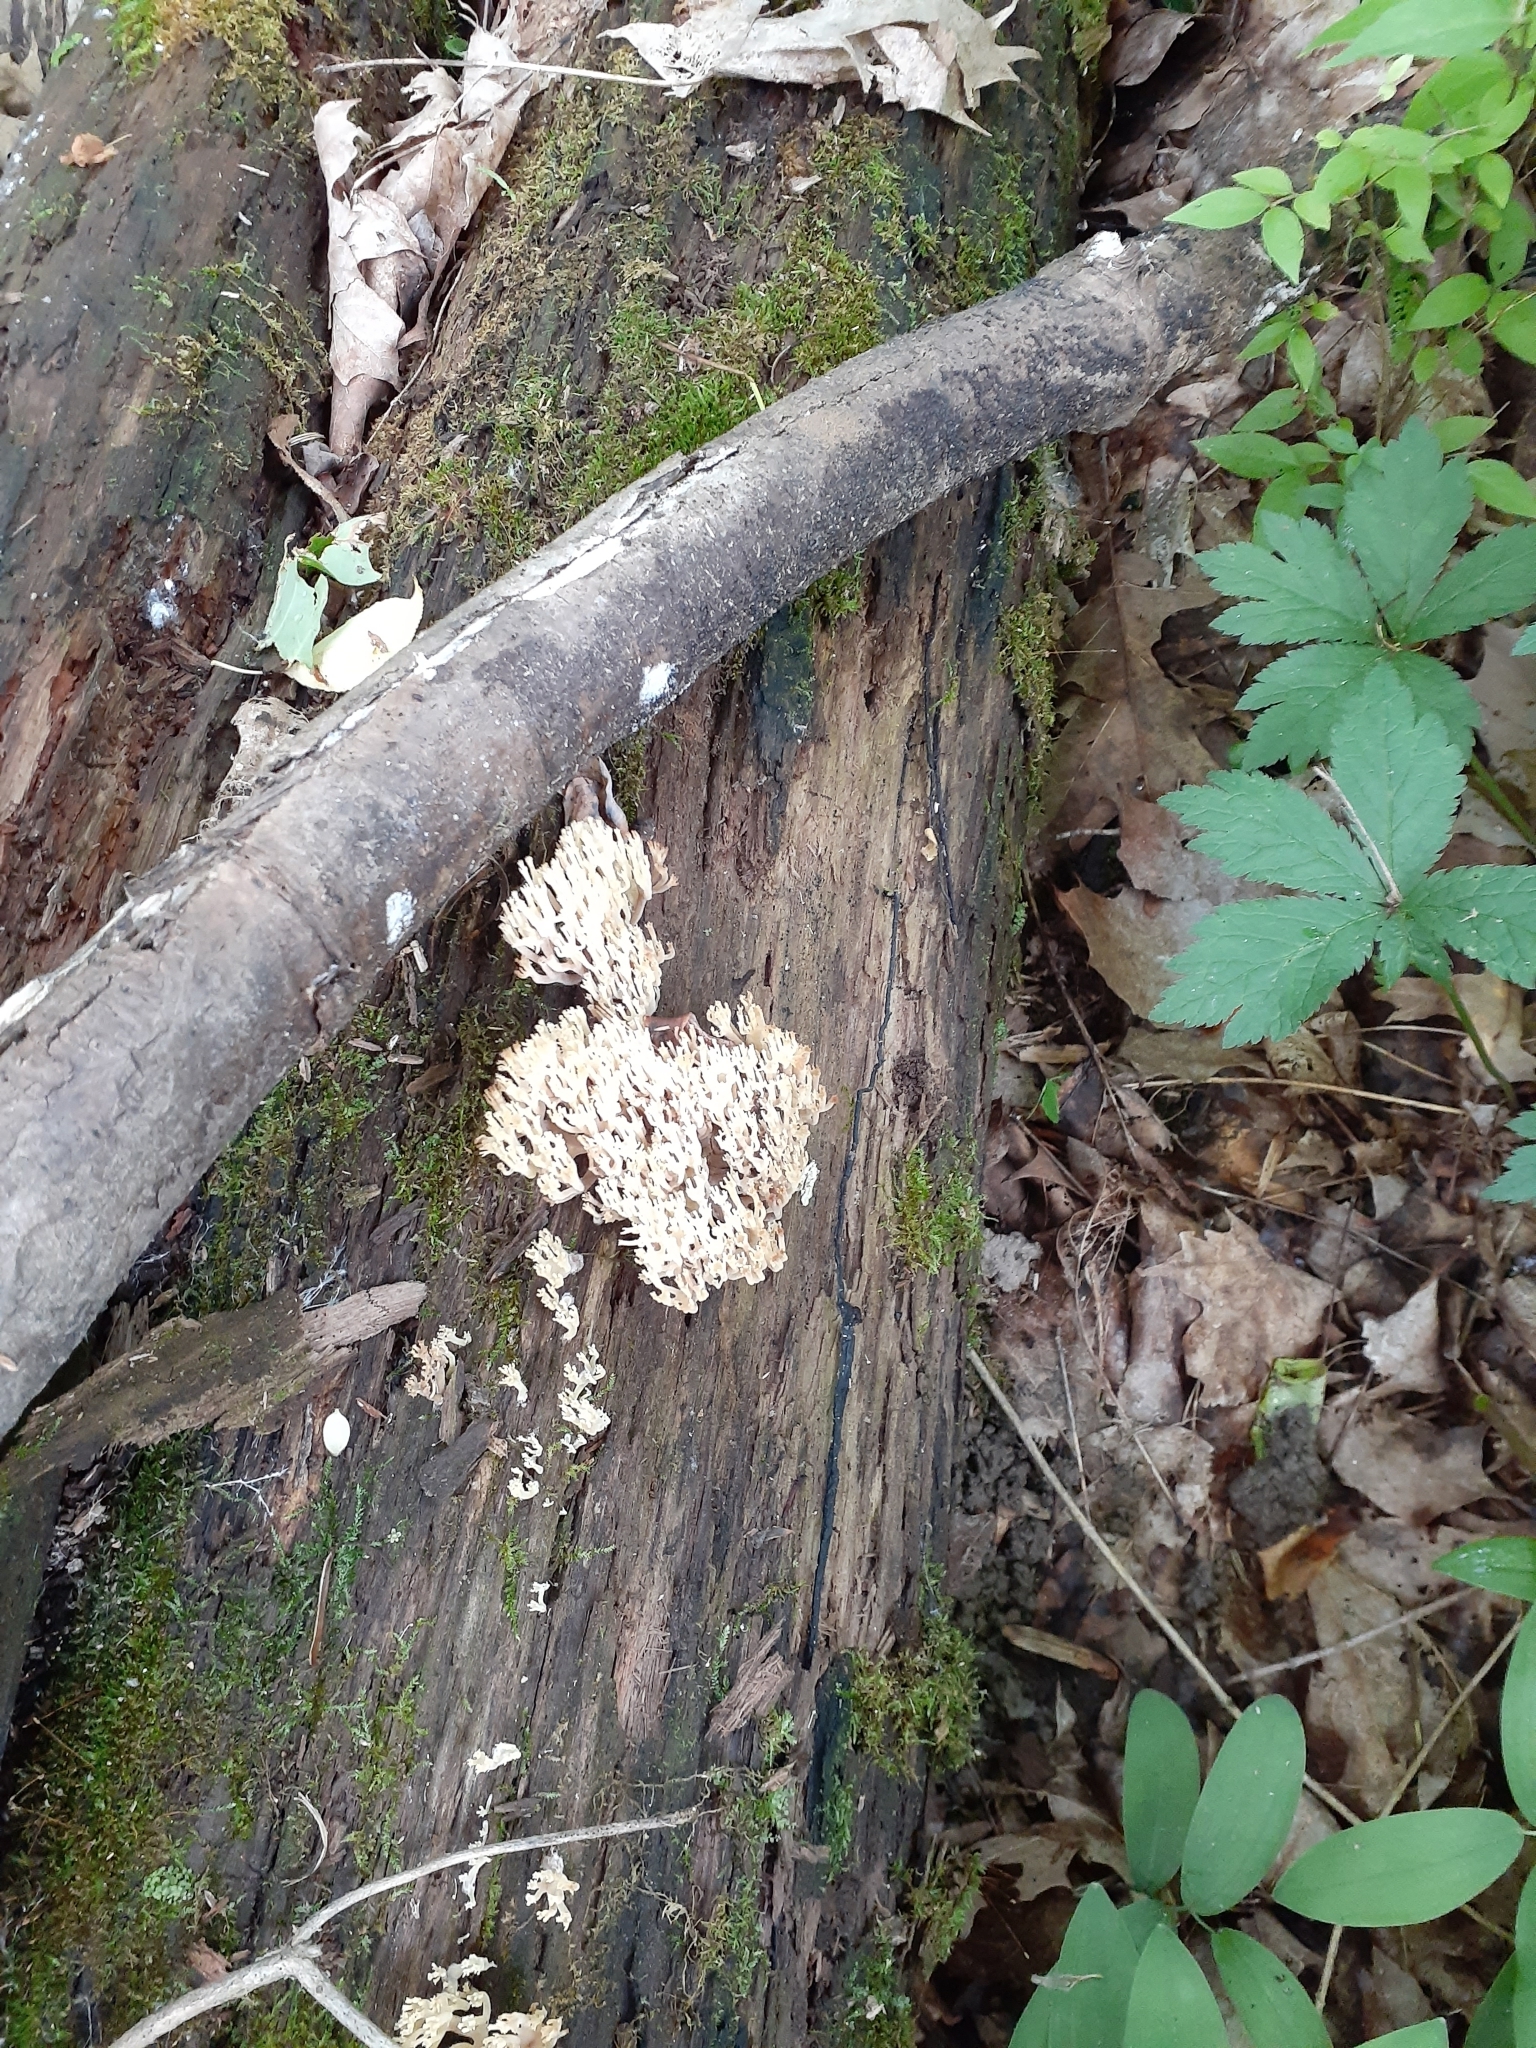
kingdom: Fungi
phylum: Basidiomycota
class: Agaricomycetes
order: Russulales
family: Auriscalpiaceae
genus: Artomyces
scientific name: Artomyces pyxidatus
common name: Crown-tipped coral fungus
